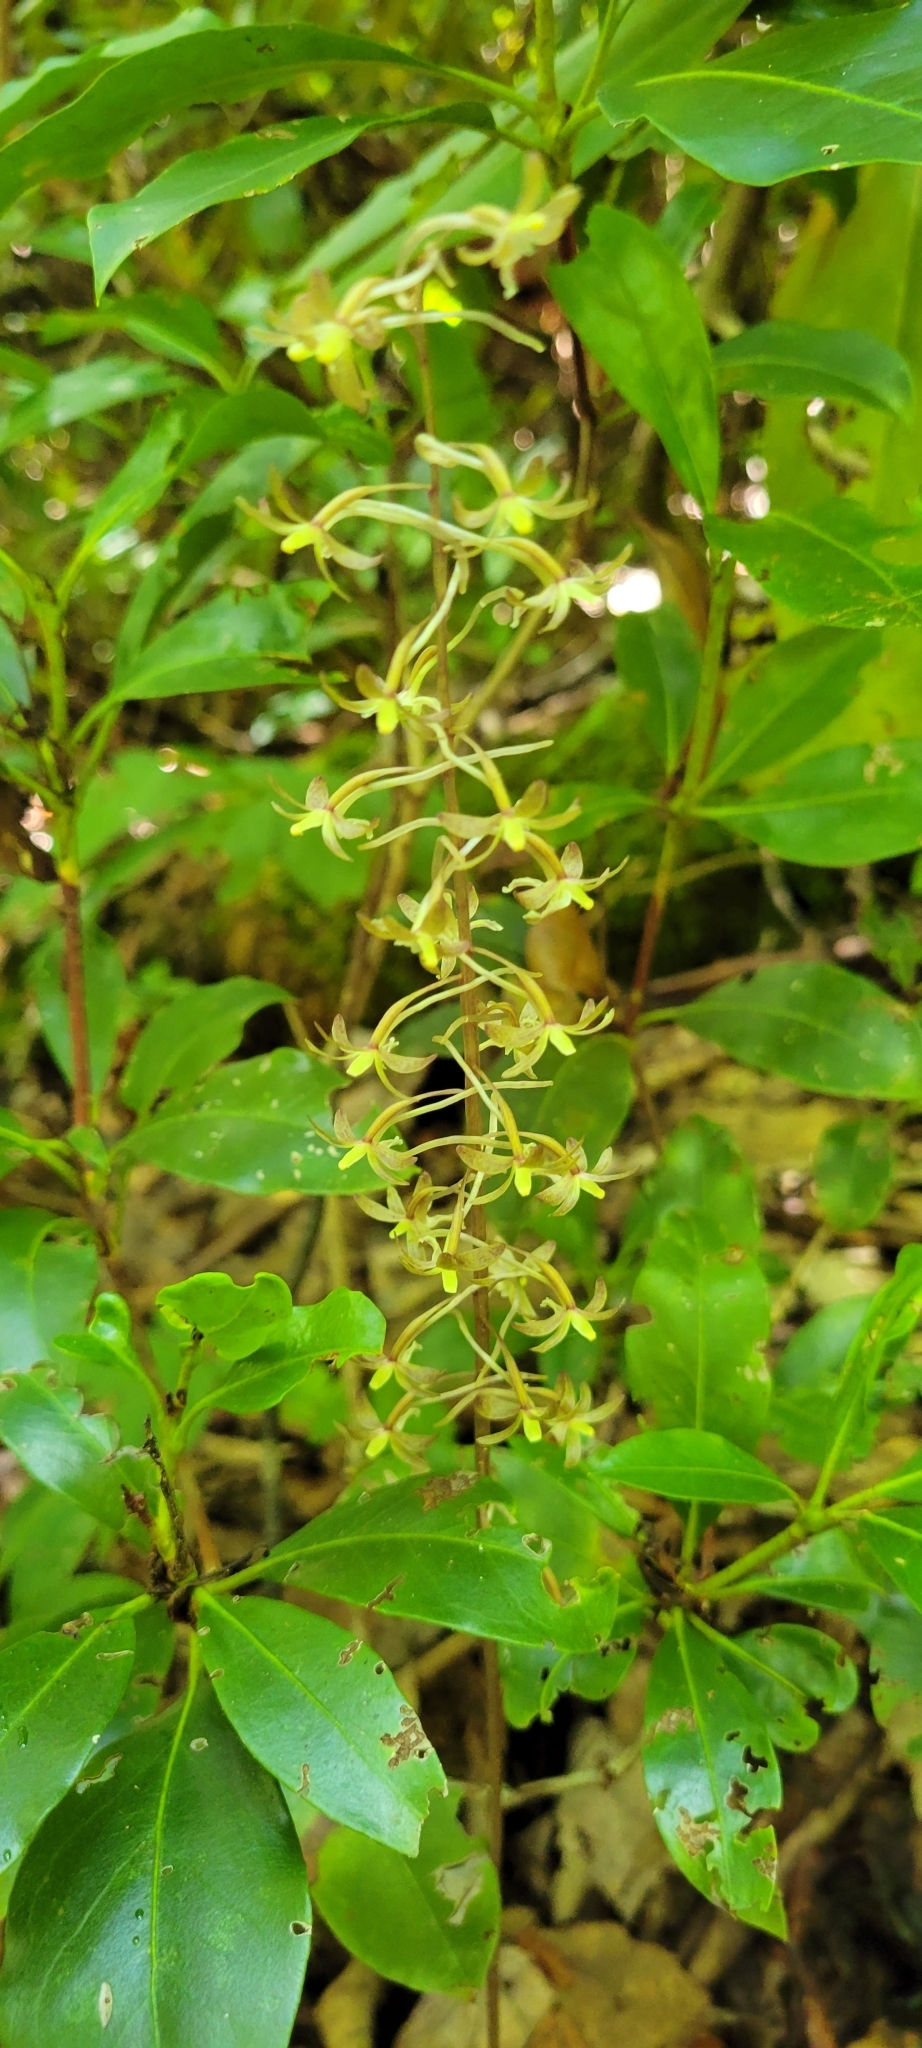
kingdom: Plantae
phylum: Tracheophyta
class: Liliopsida
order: Asparagales
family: Orchidaceae
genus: Tipularia
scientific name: Tipularia discolor
